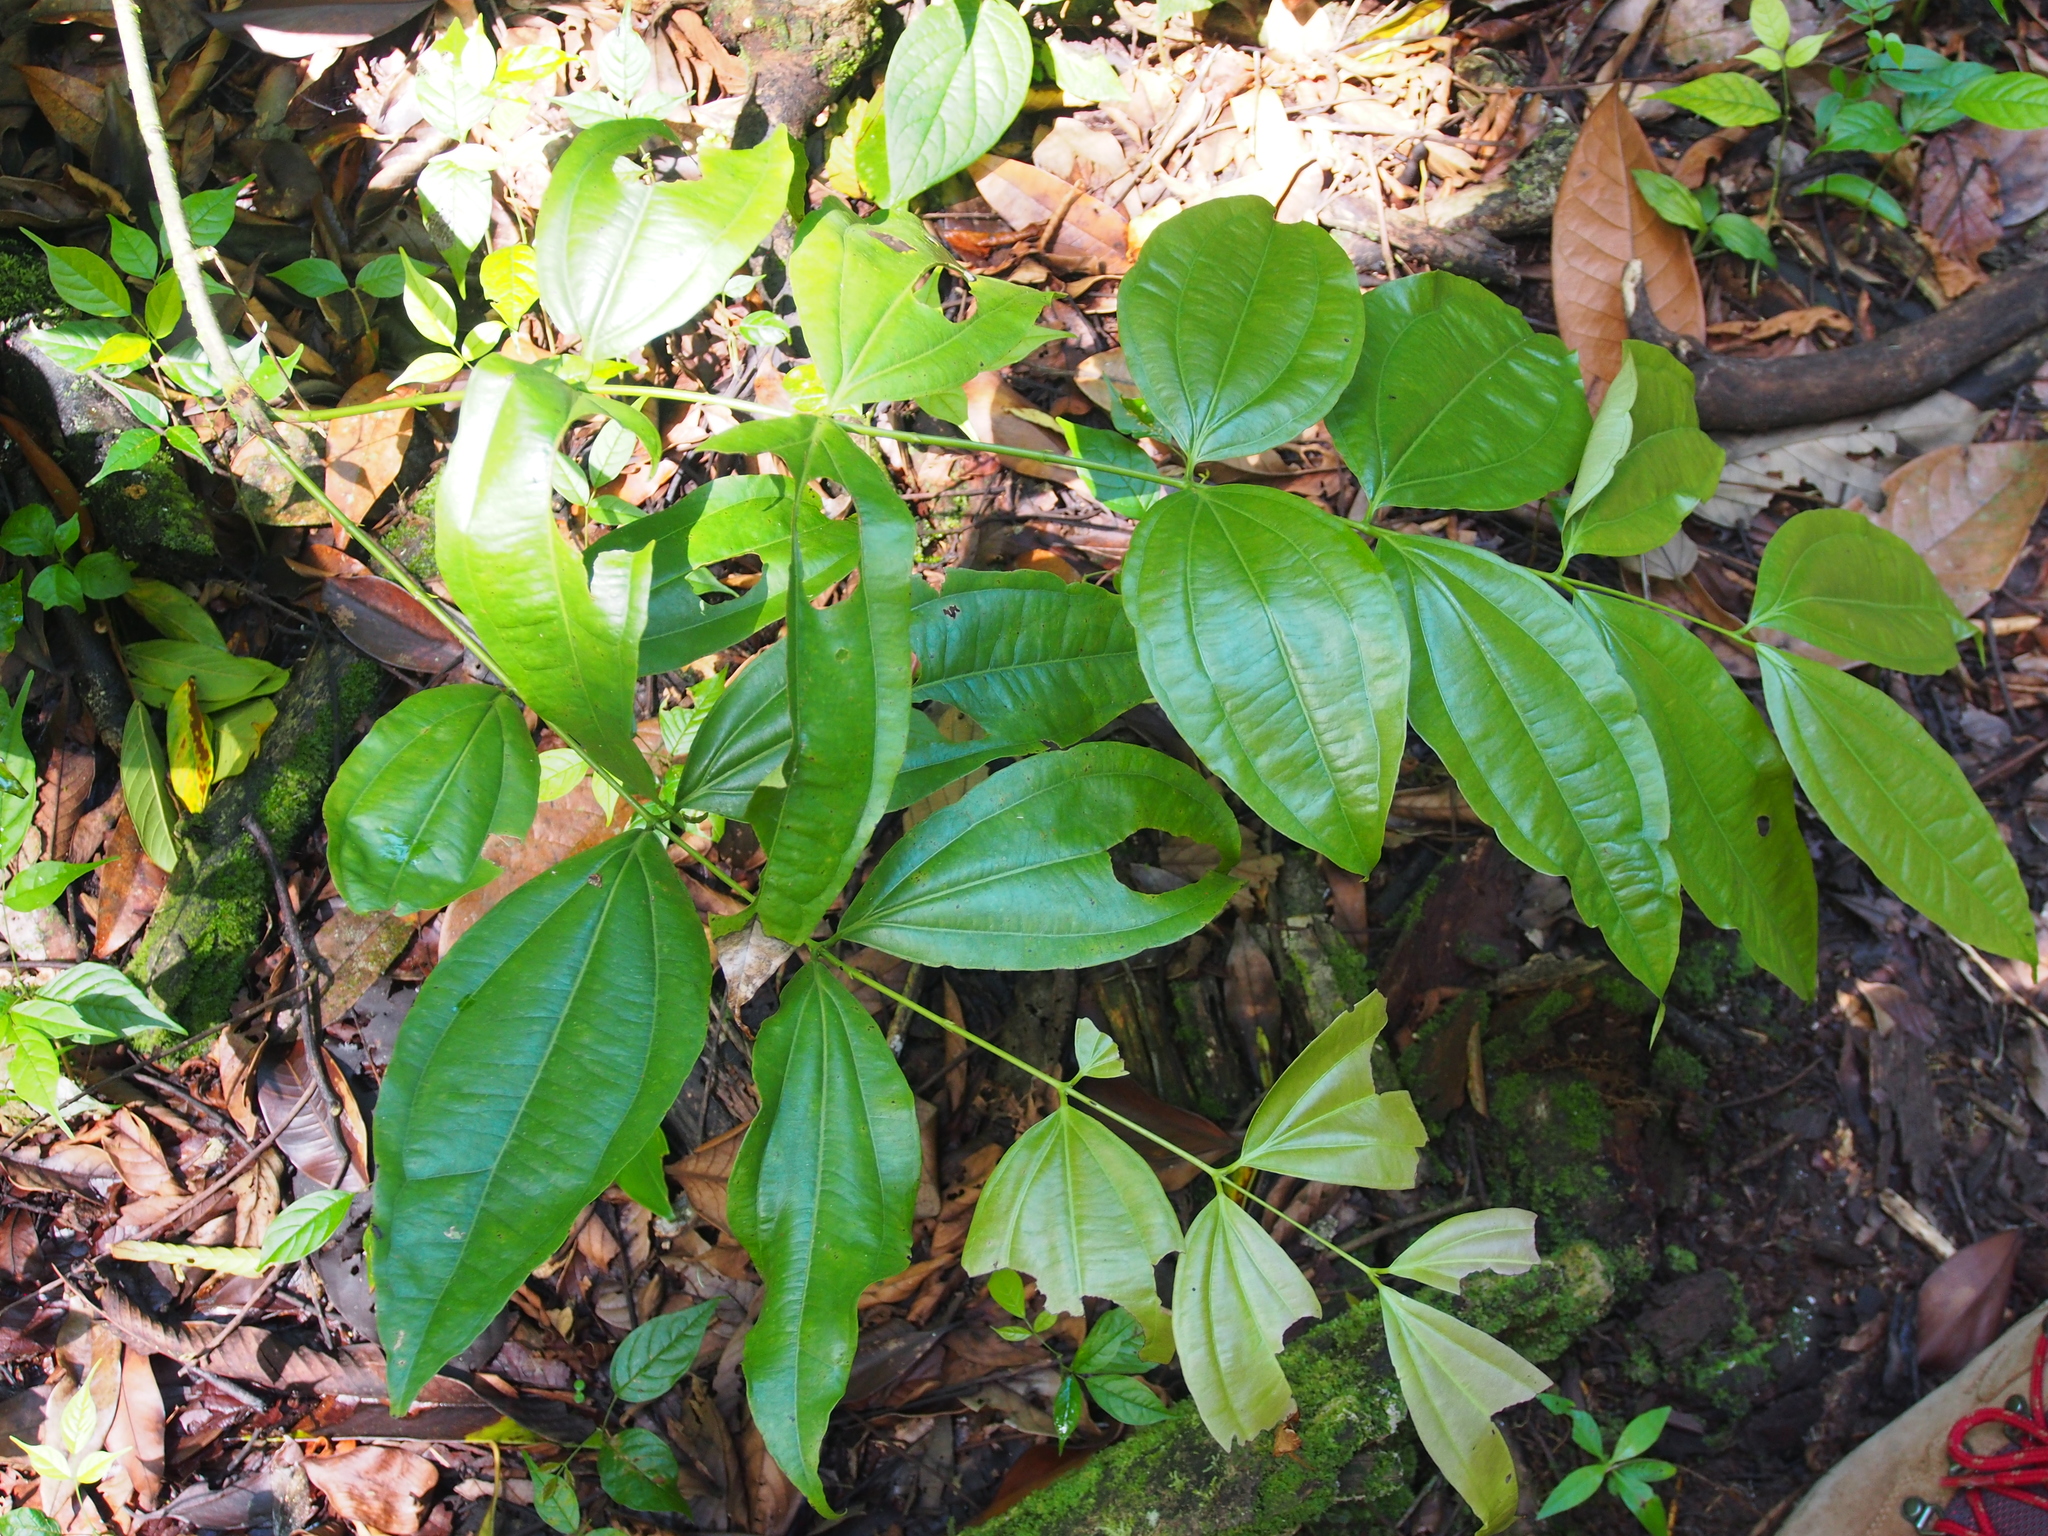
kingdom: Plantae
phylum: Tracheophyta
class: Magnoliopsida
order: Gentianales
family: Loganiaceae
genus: Strychnos
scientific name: Strychnos peckii
